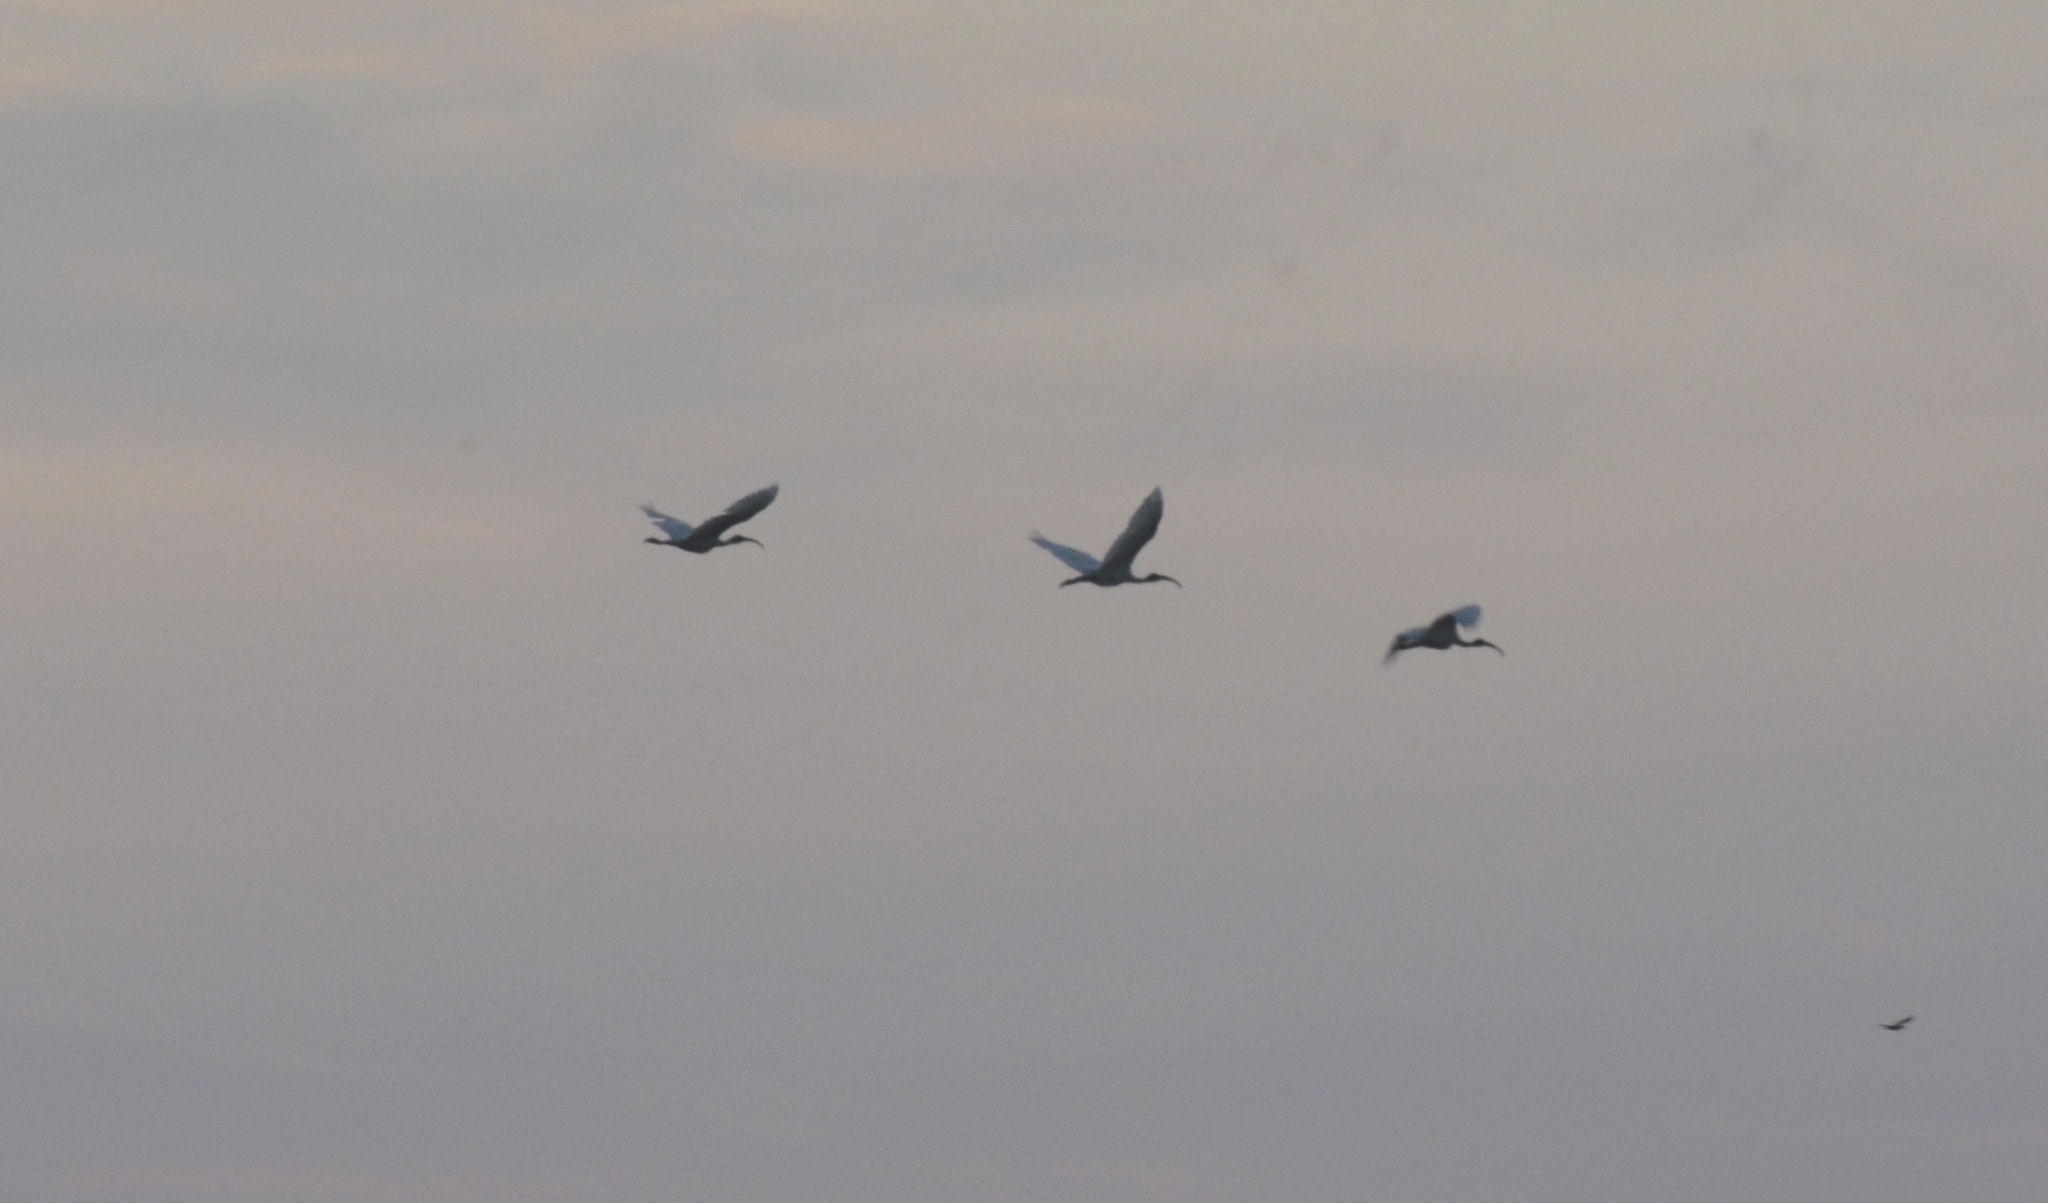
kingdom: Animalia
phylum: Chordata
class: Aves
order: Pelecaniformes
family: Threskiornithidae
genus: Threskiornis
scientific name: Threskiornis melanocephalus
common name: Black-headed ibis
